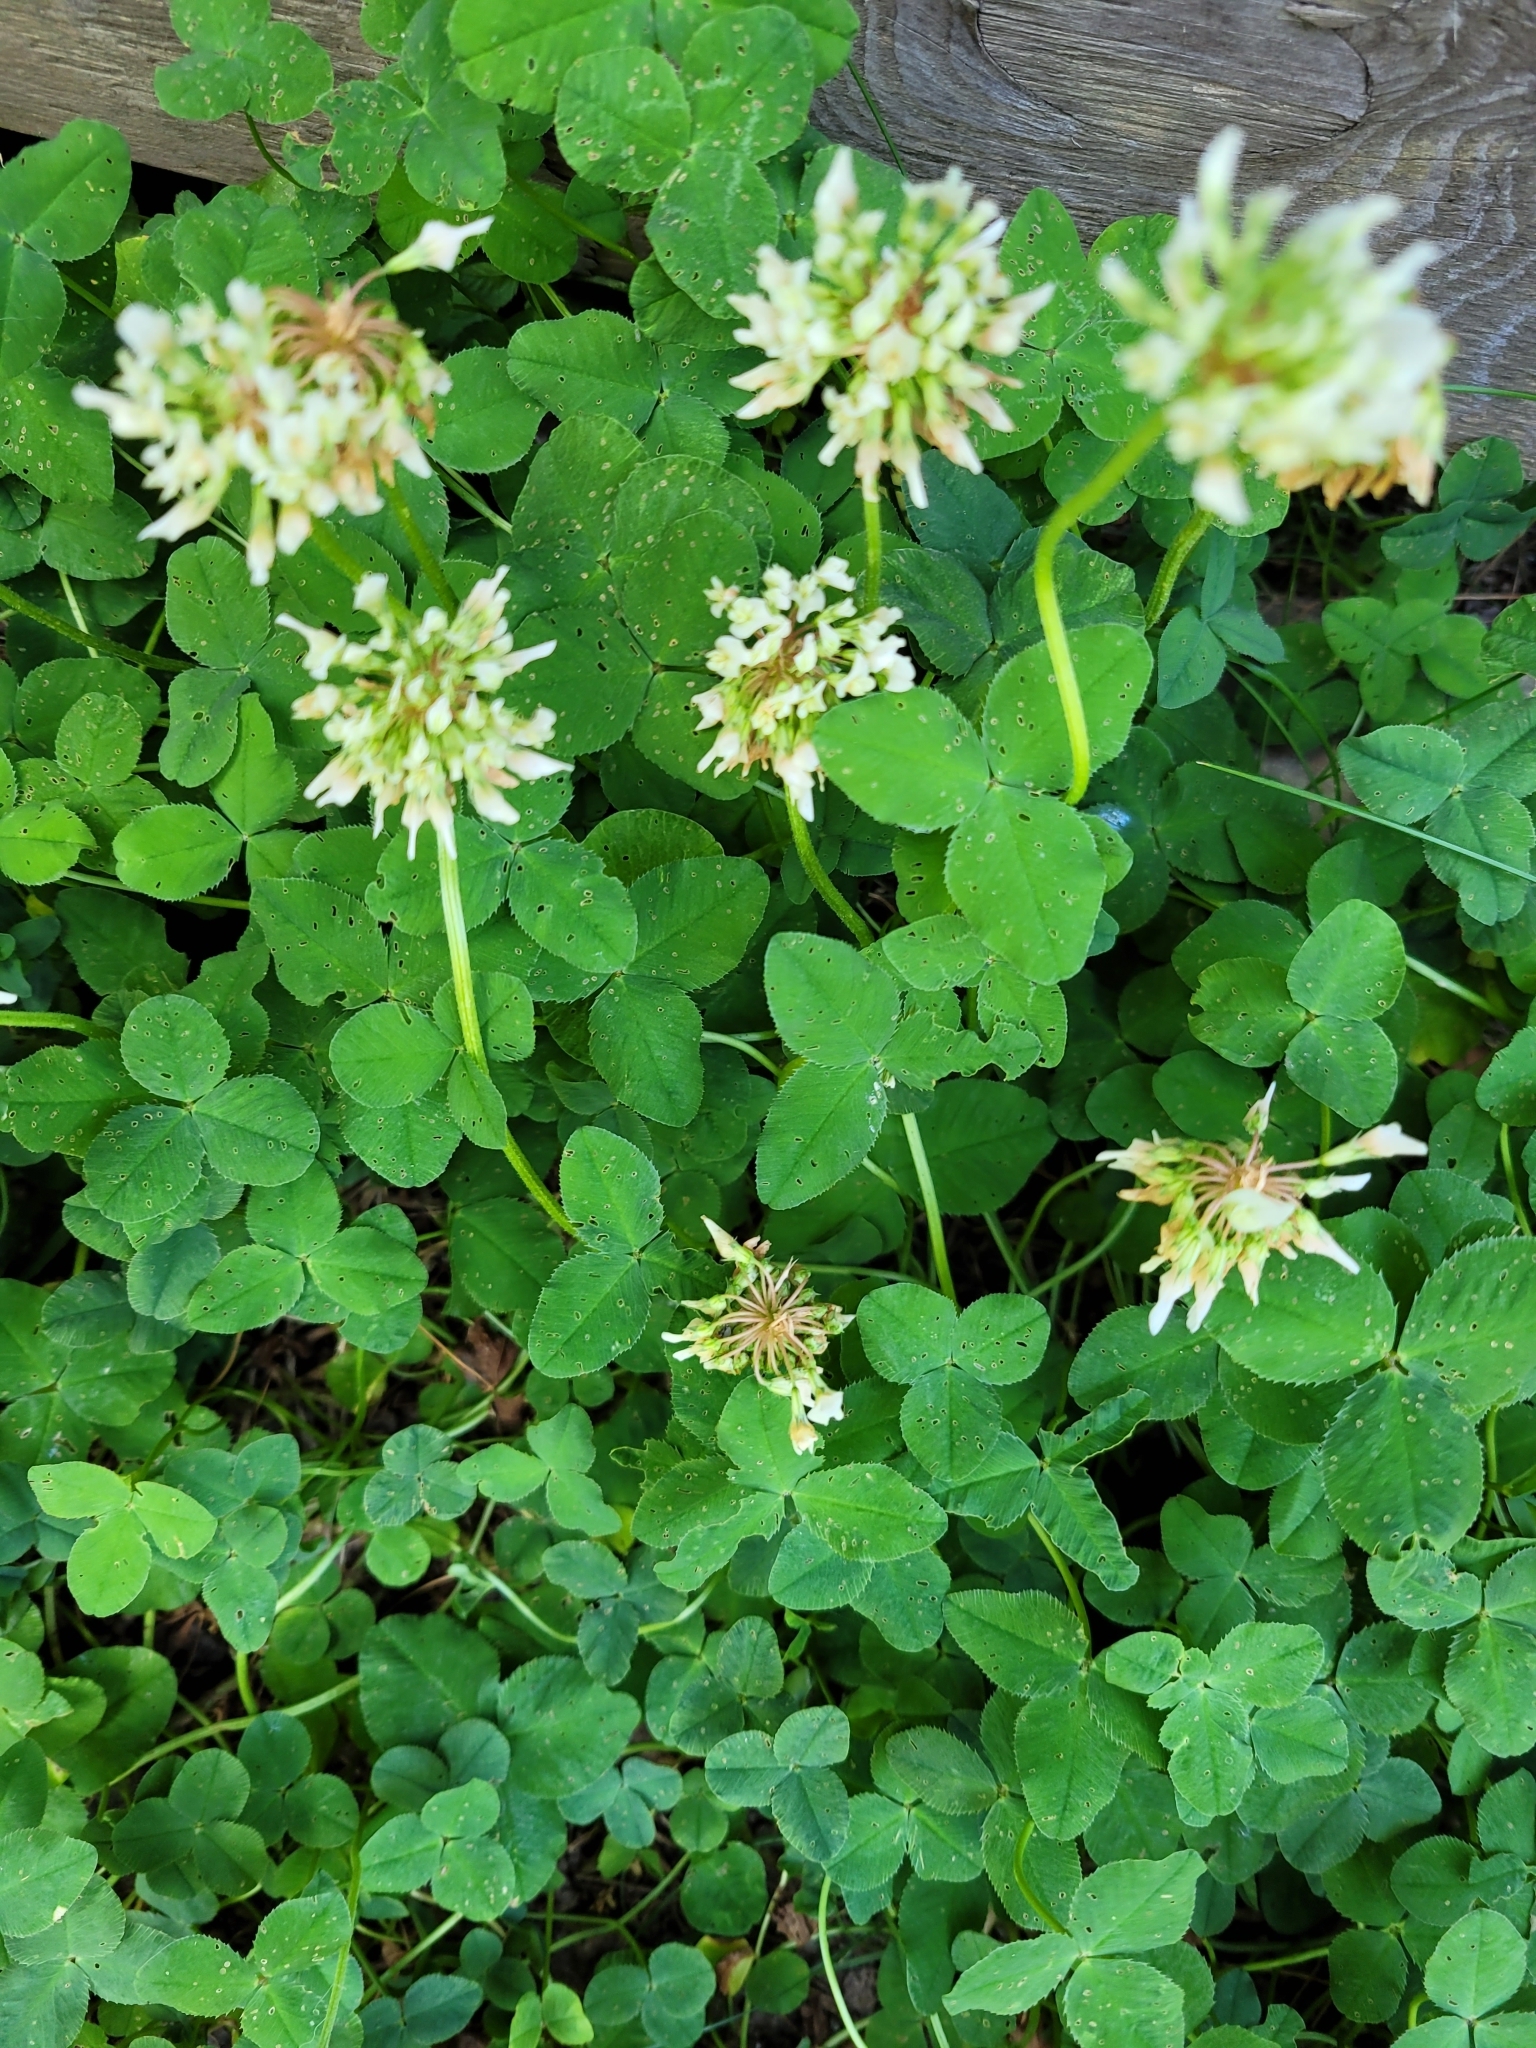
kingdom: Plantae
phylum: Tracheophyta
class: Magnoliopsida
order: Fabales
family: Fabaceae
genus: Trifolium
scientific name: Trifolium repens
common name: White clover
